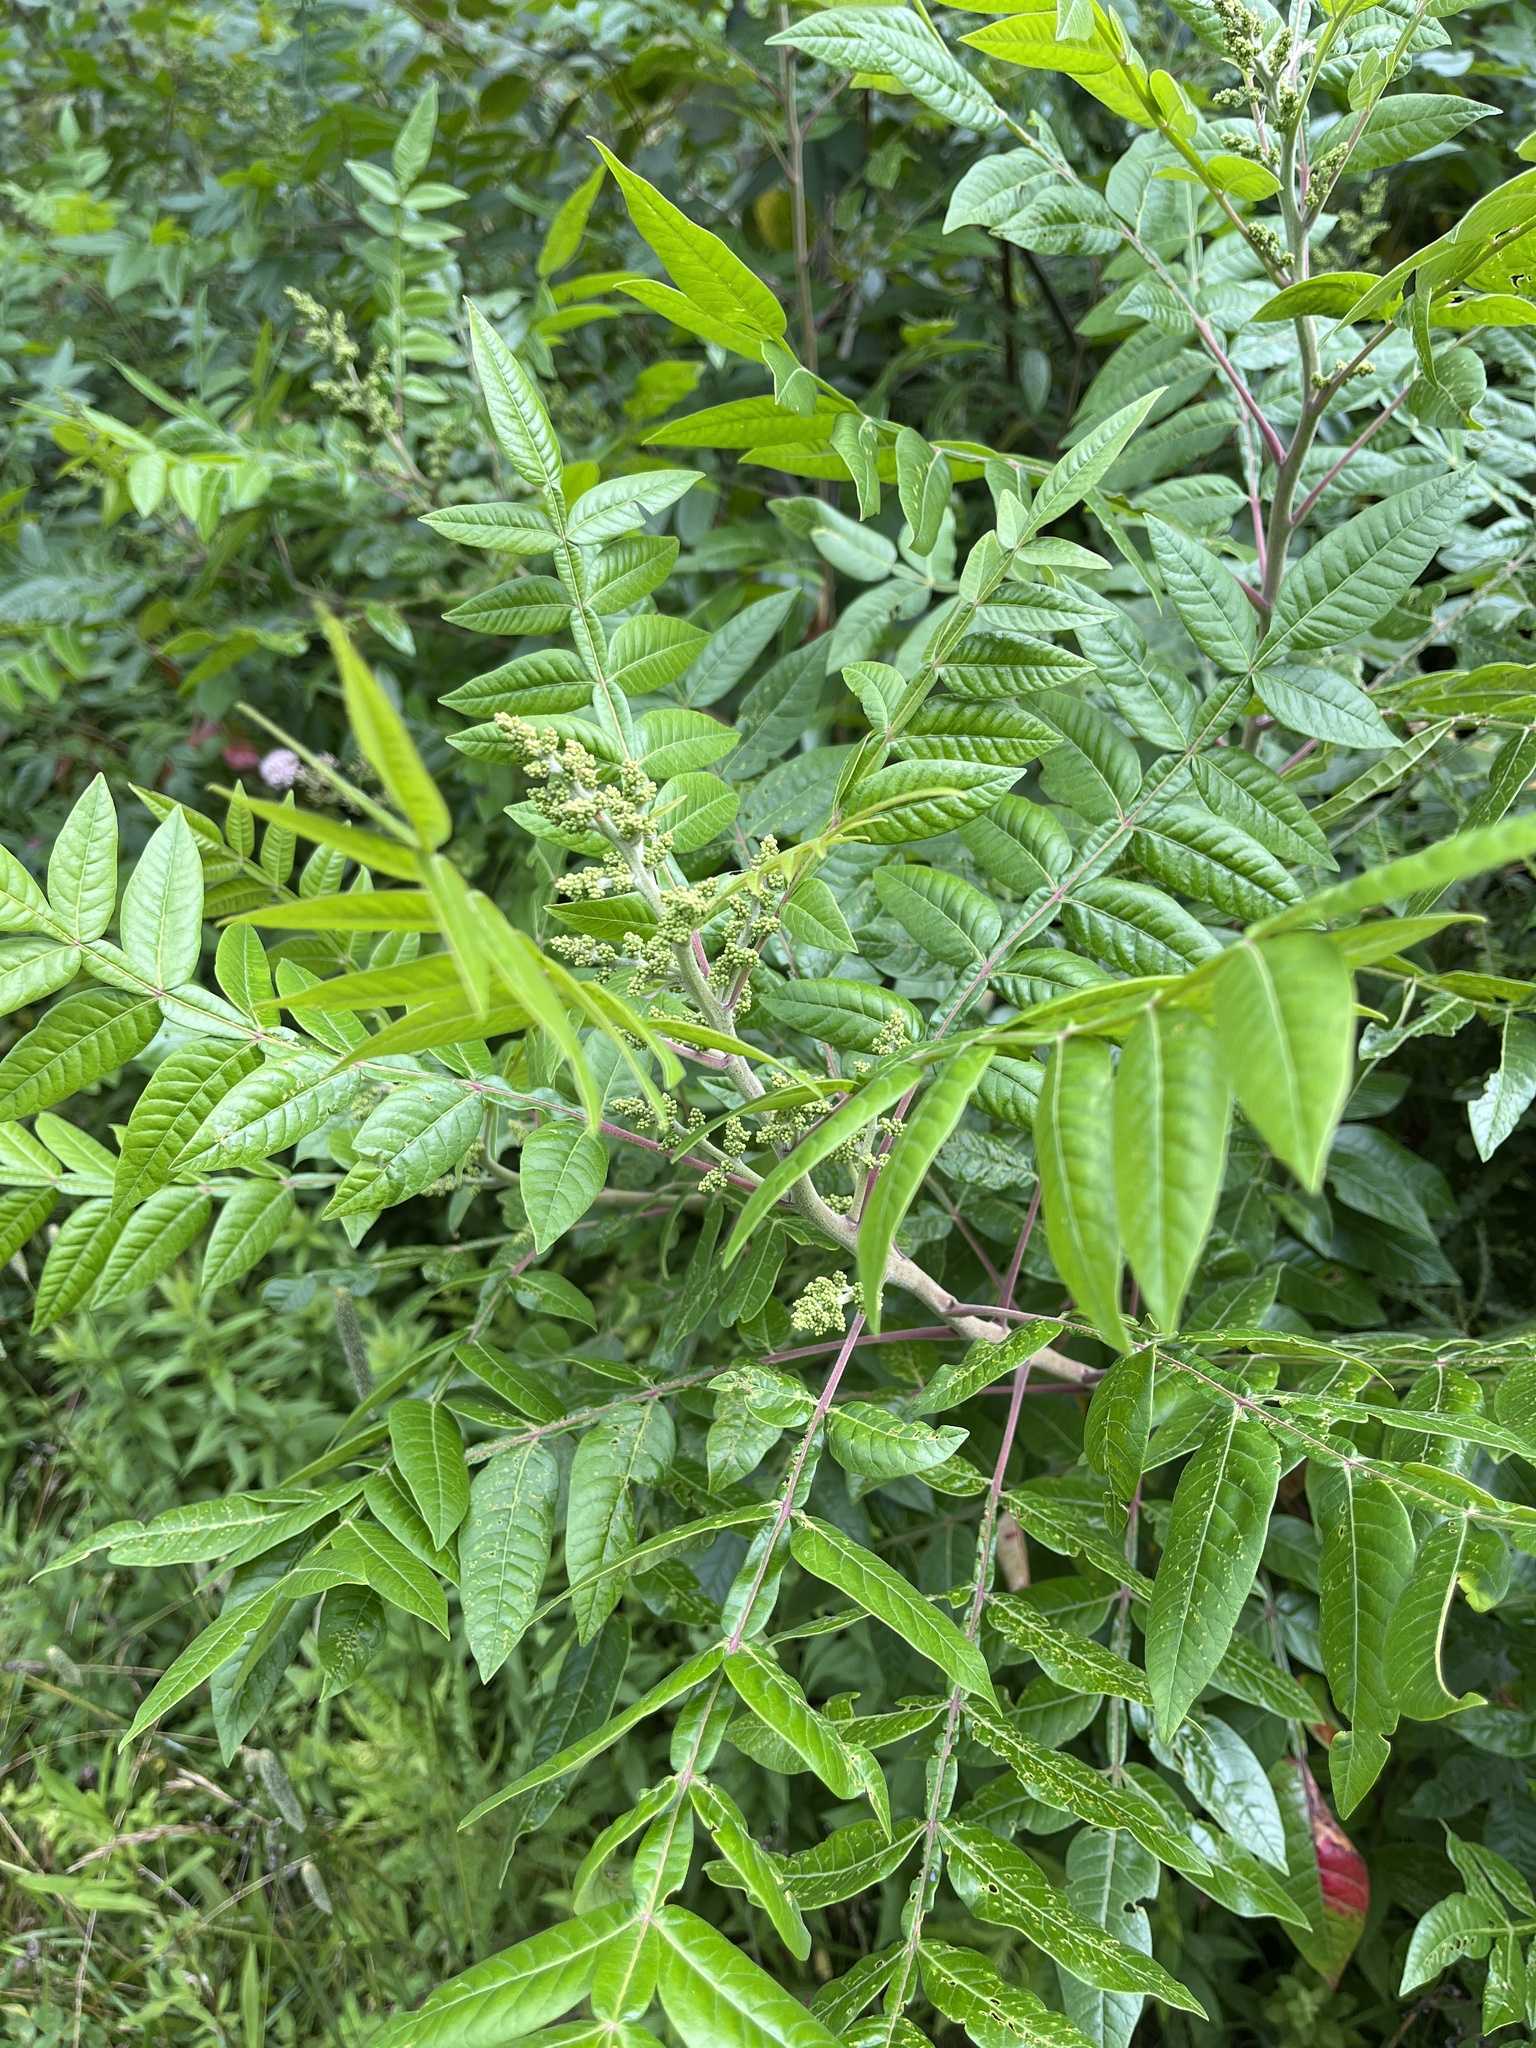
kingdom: Plantae
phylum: Tracheophyta
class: Magnoliopsida
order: Sapindales
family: Anacardiaceae
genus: Rhus
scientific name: Rhus copallina
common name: Shining sumac
